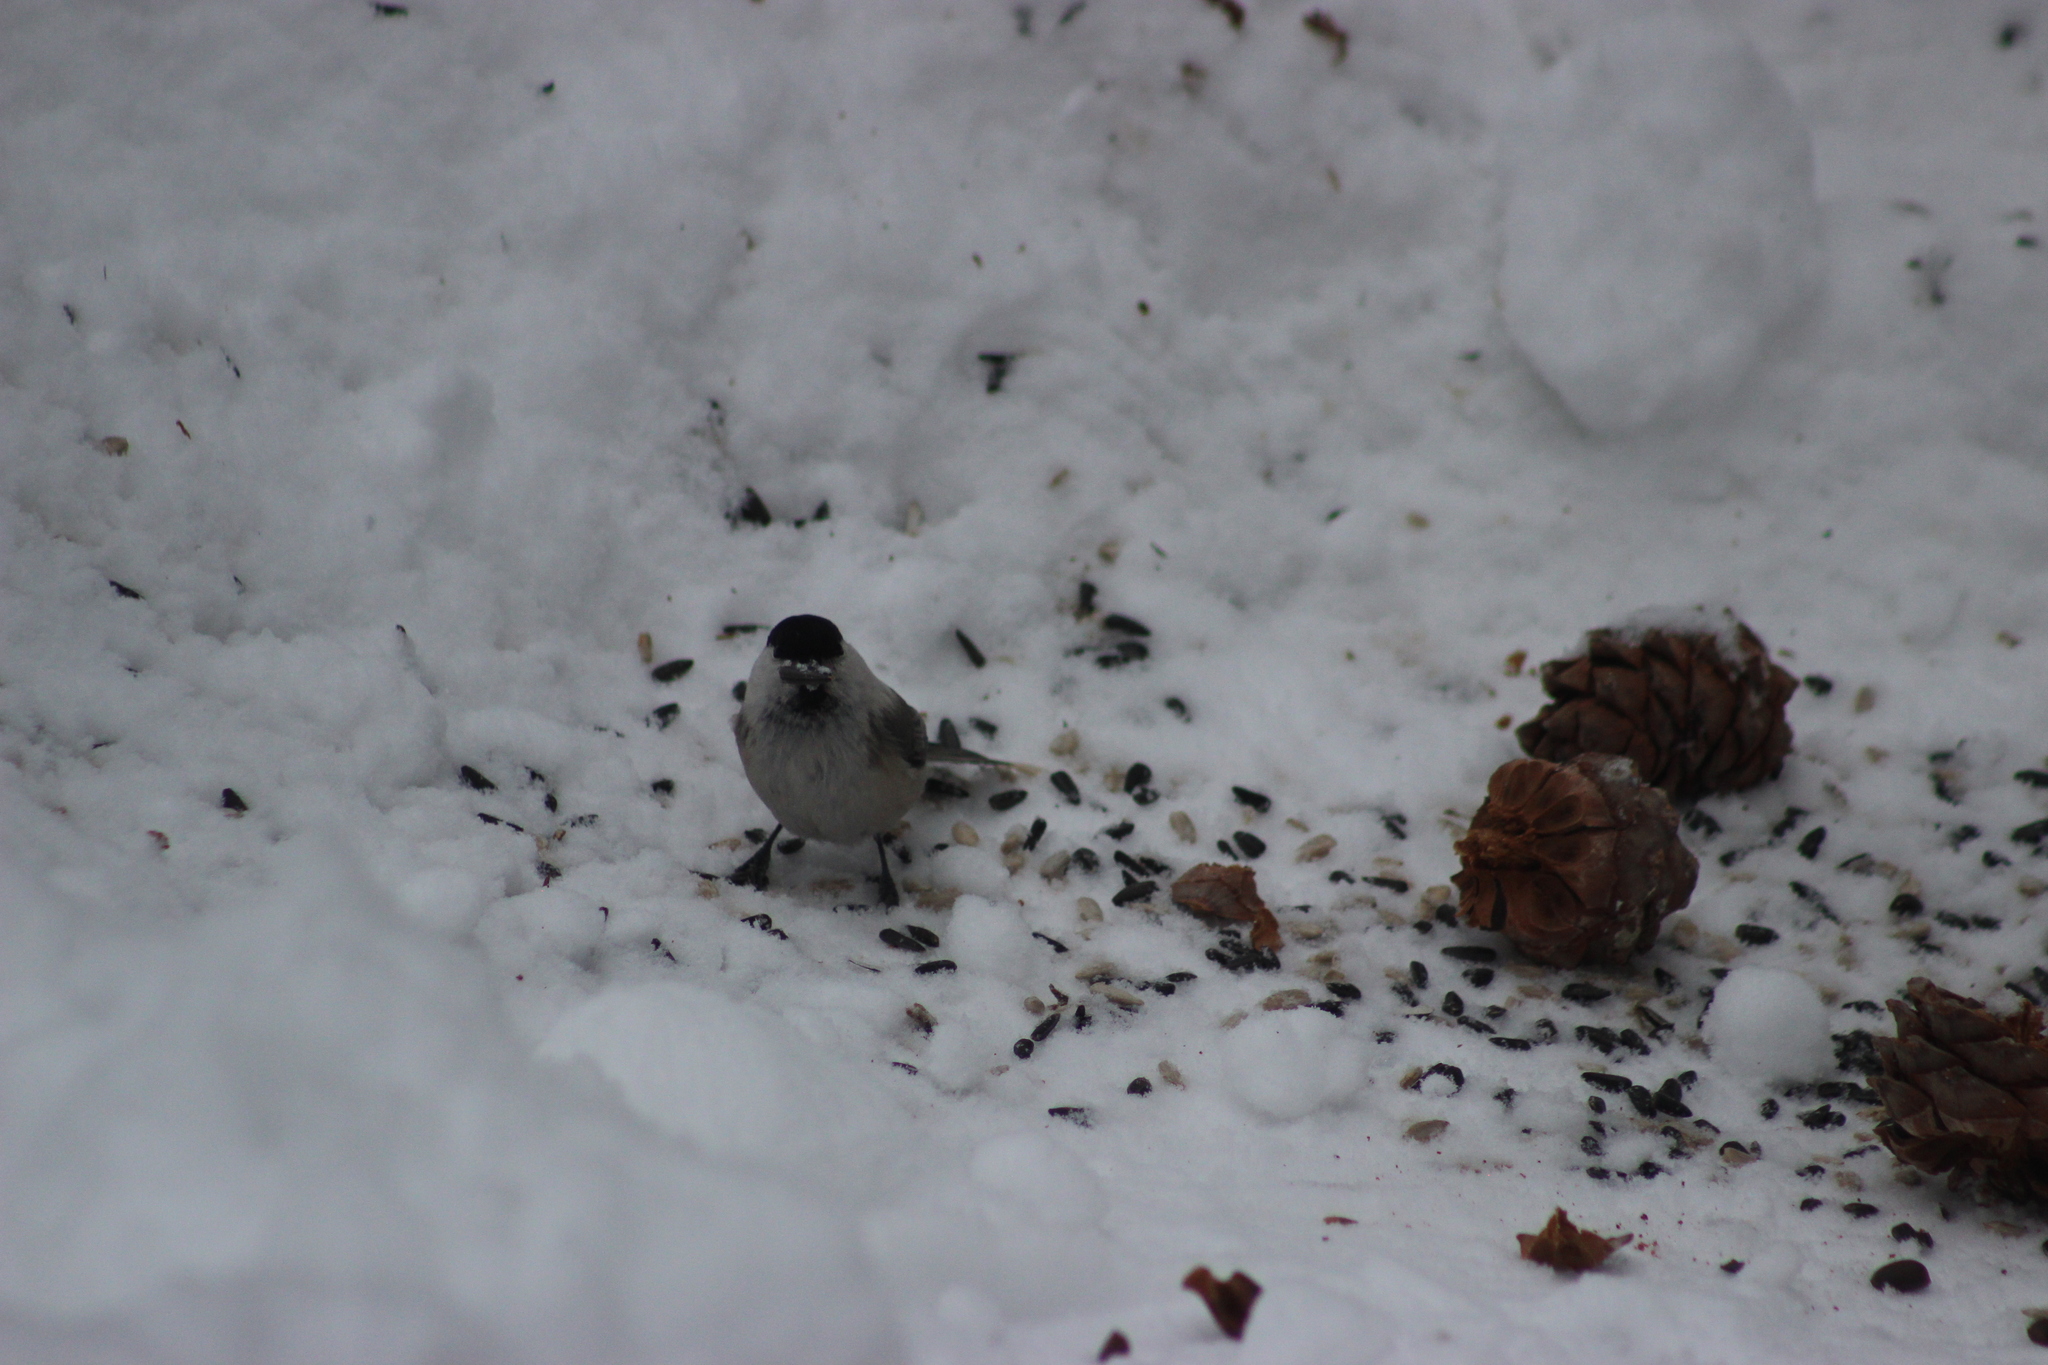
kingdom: Animalia
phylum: Chordata
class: Aves
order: Passeriformes
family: Paridae
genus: Poecile
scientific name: Poecile montanus
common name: Willow tit
